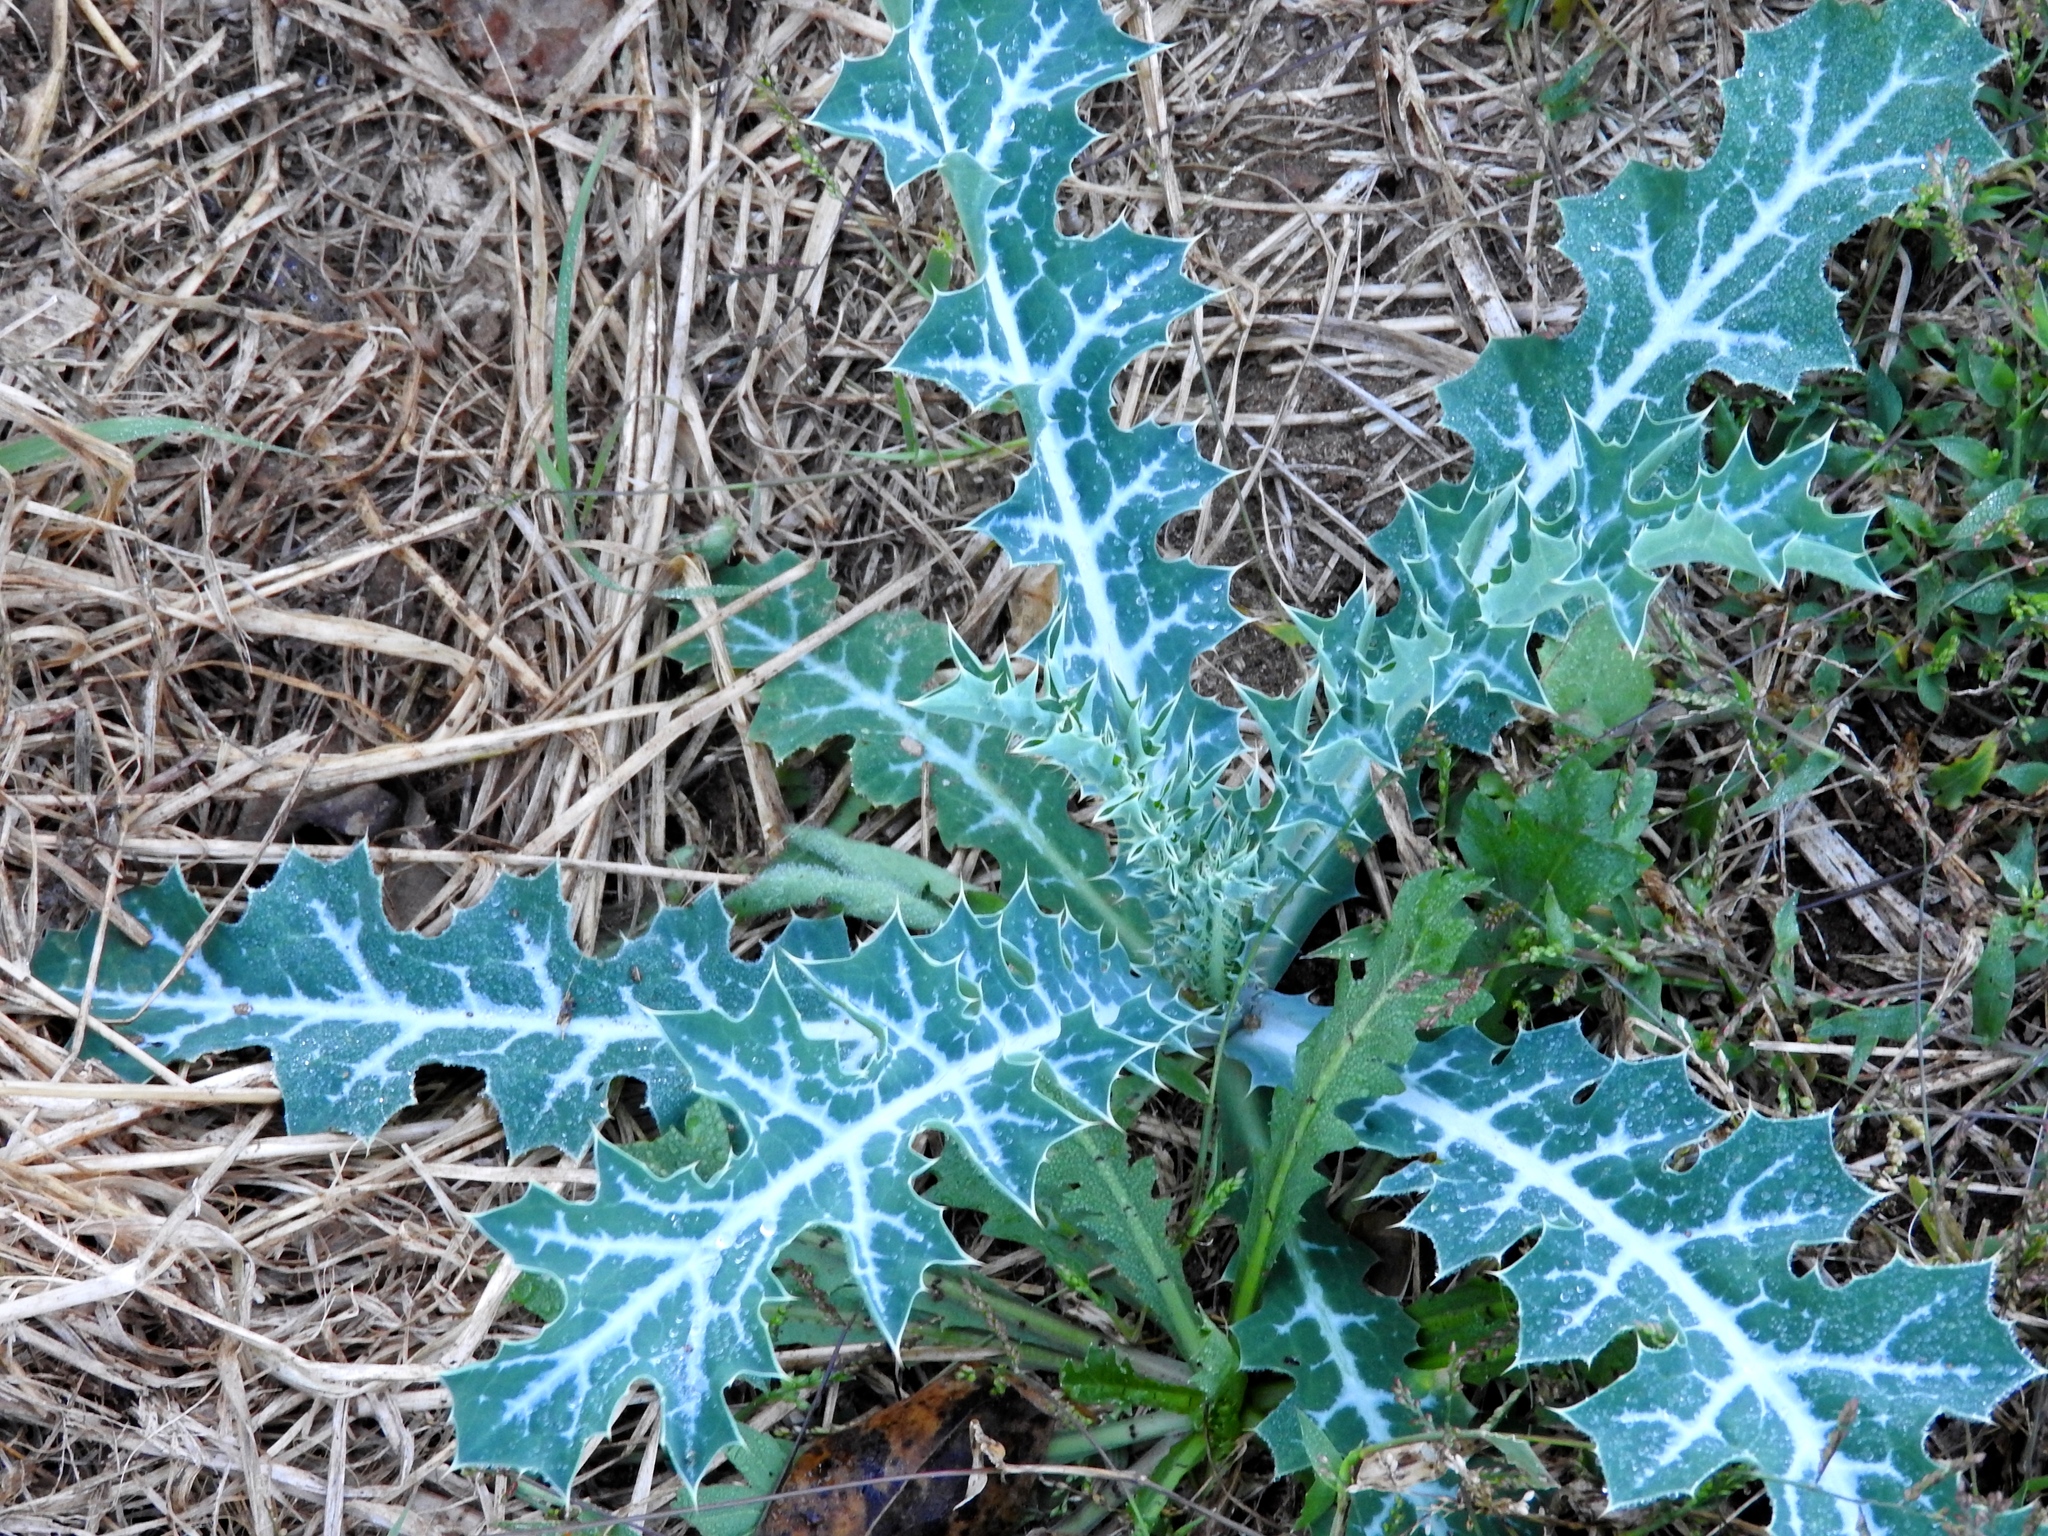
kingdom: Plantae
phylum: Tracheophyta
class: Magnoliopsida
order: Ranunculales
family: Papaveraceae
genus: Argemone
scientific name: Argemone mexicana
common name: Mexican poppy
